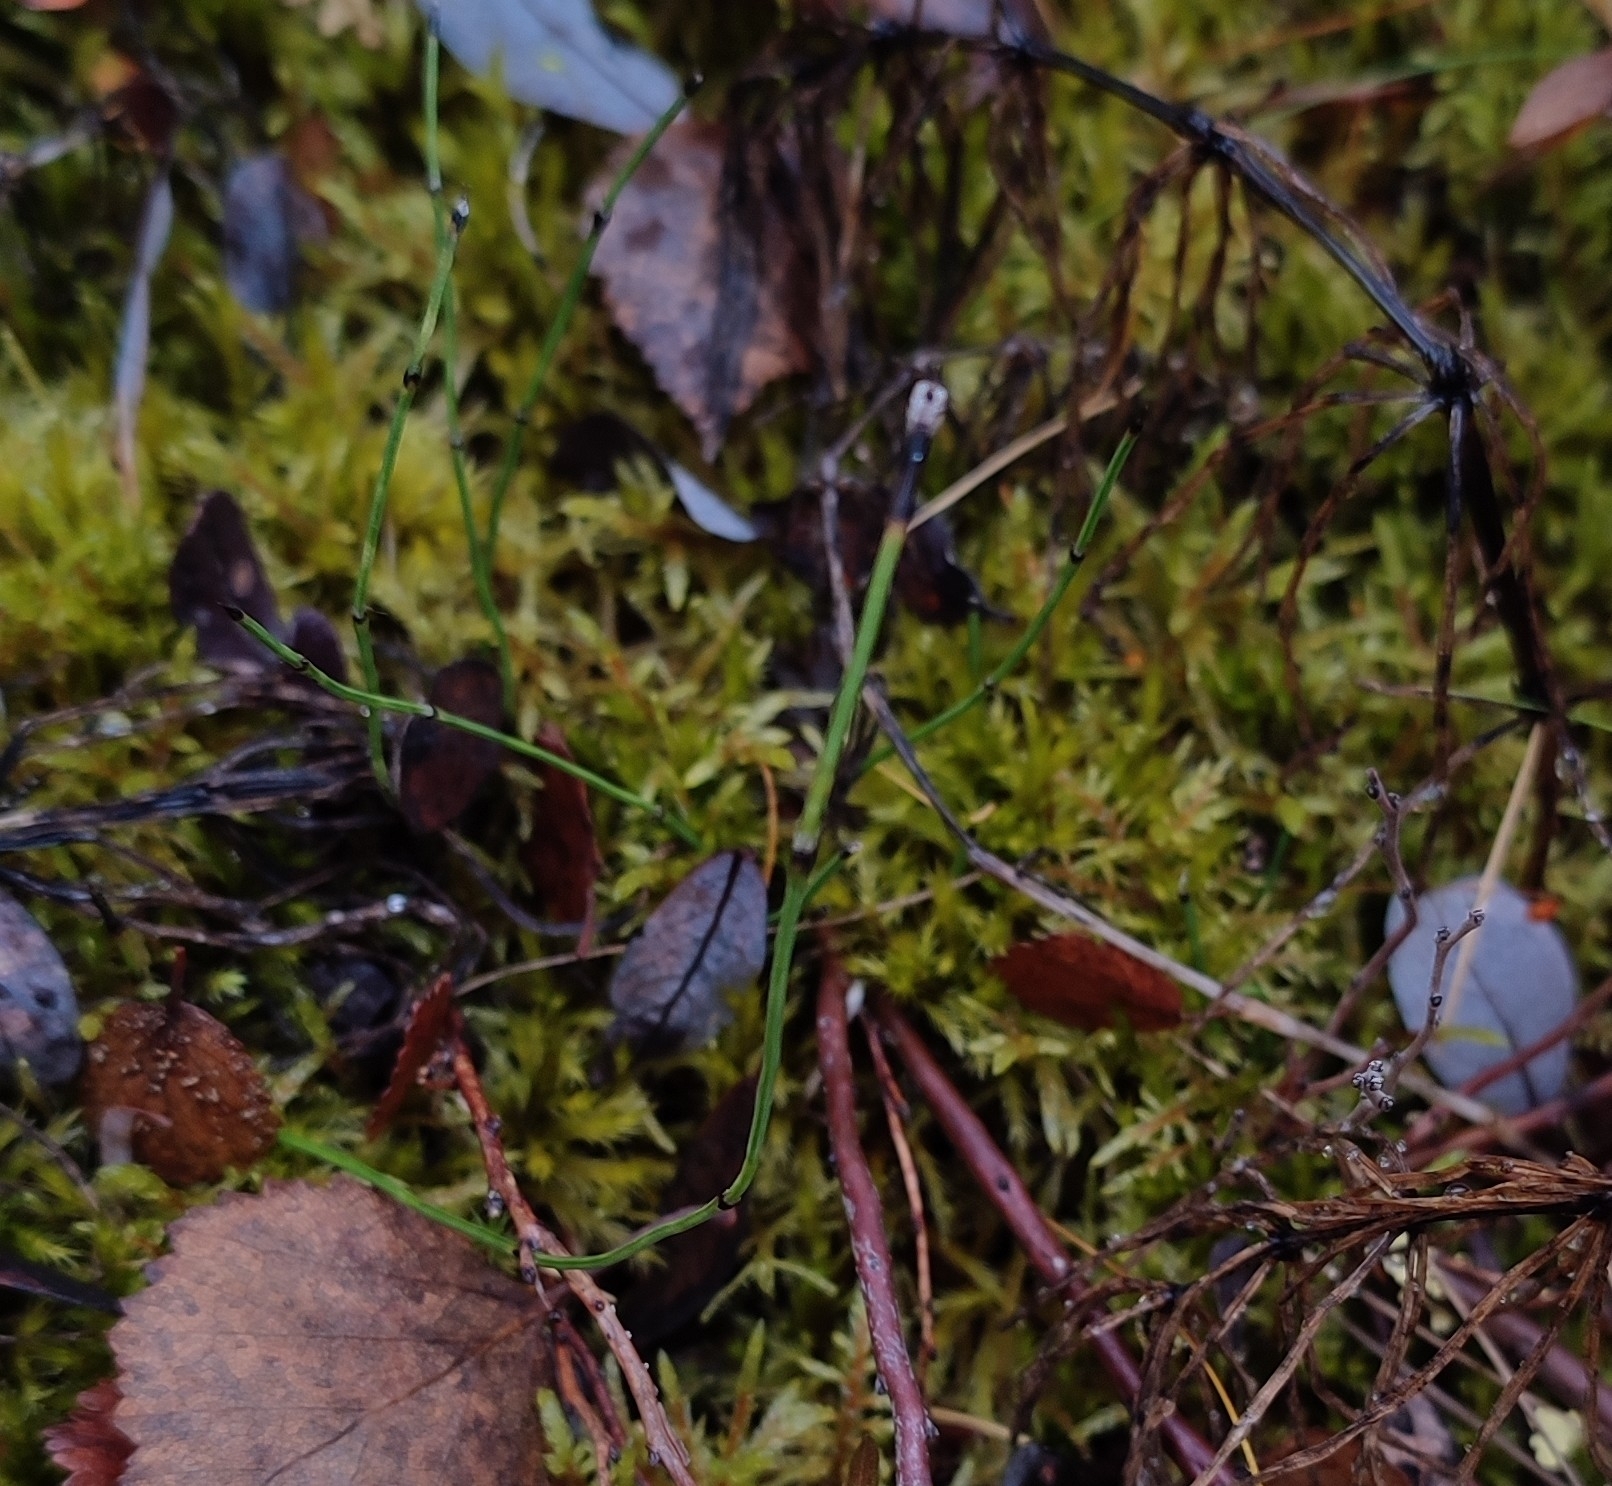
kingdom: Plantae
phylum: Tracheophyta
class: Polypodiopsida
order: Equisetales
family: Equisetaceae
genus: Equisetum
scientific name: Equisetum scirpoides
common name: Delicate horsetail
